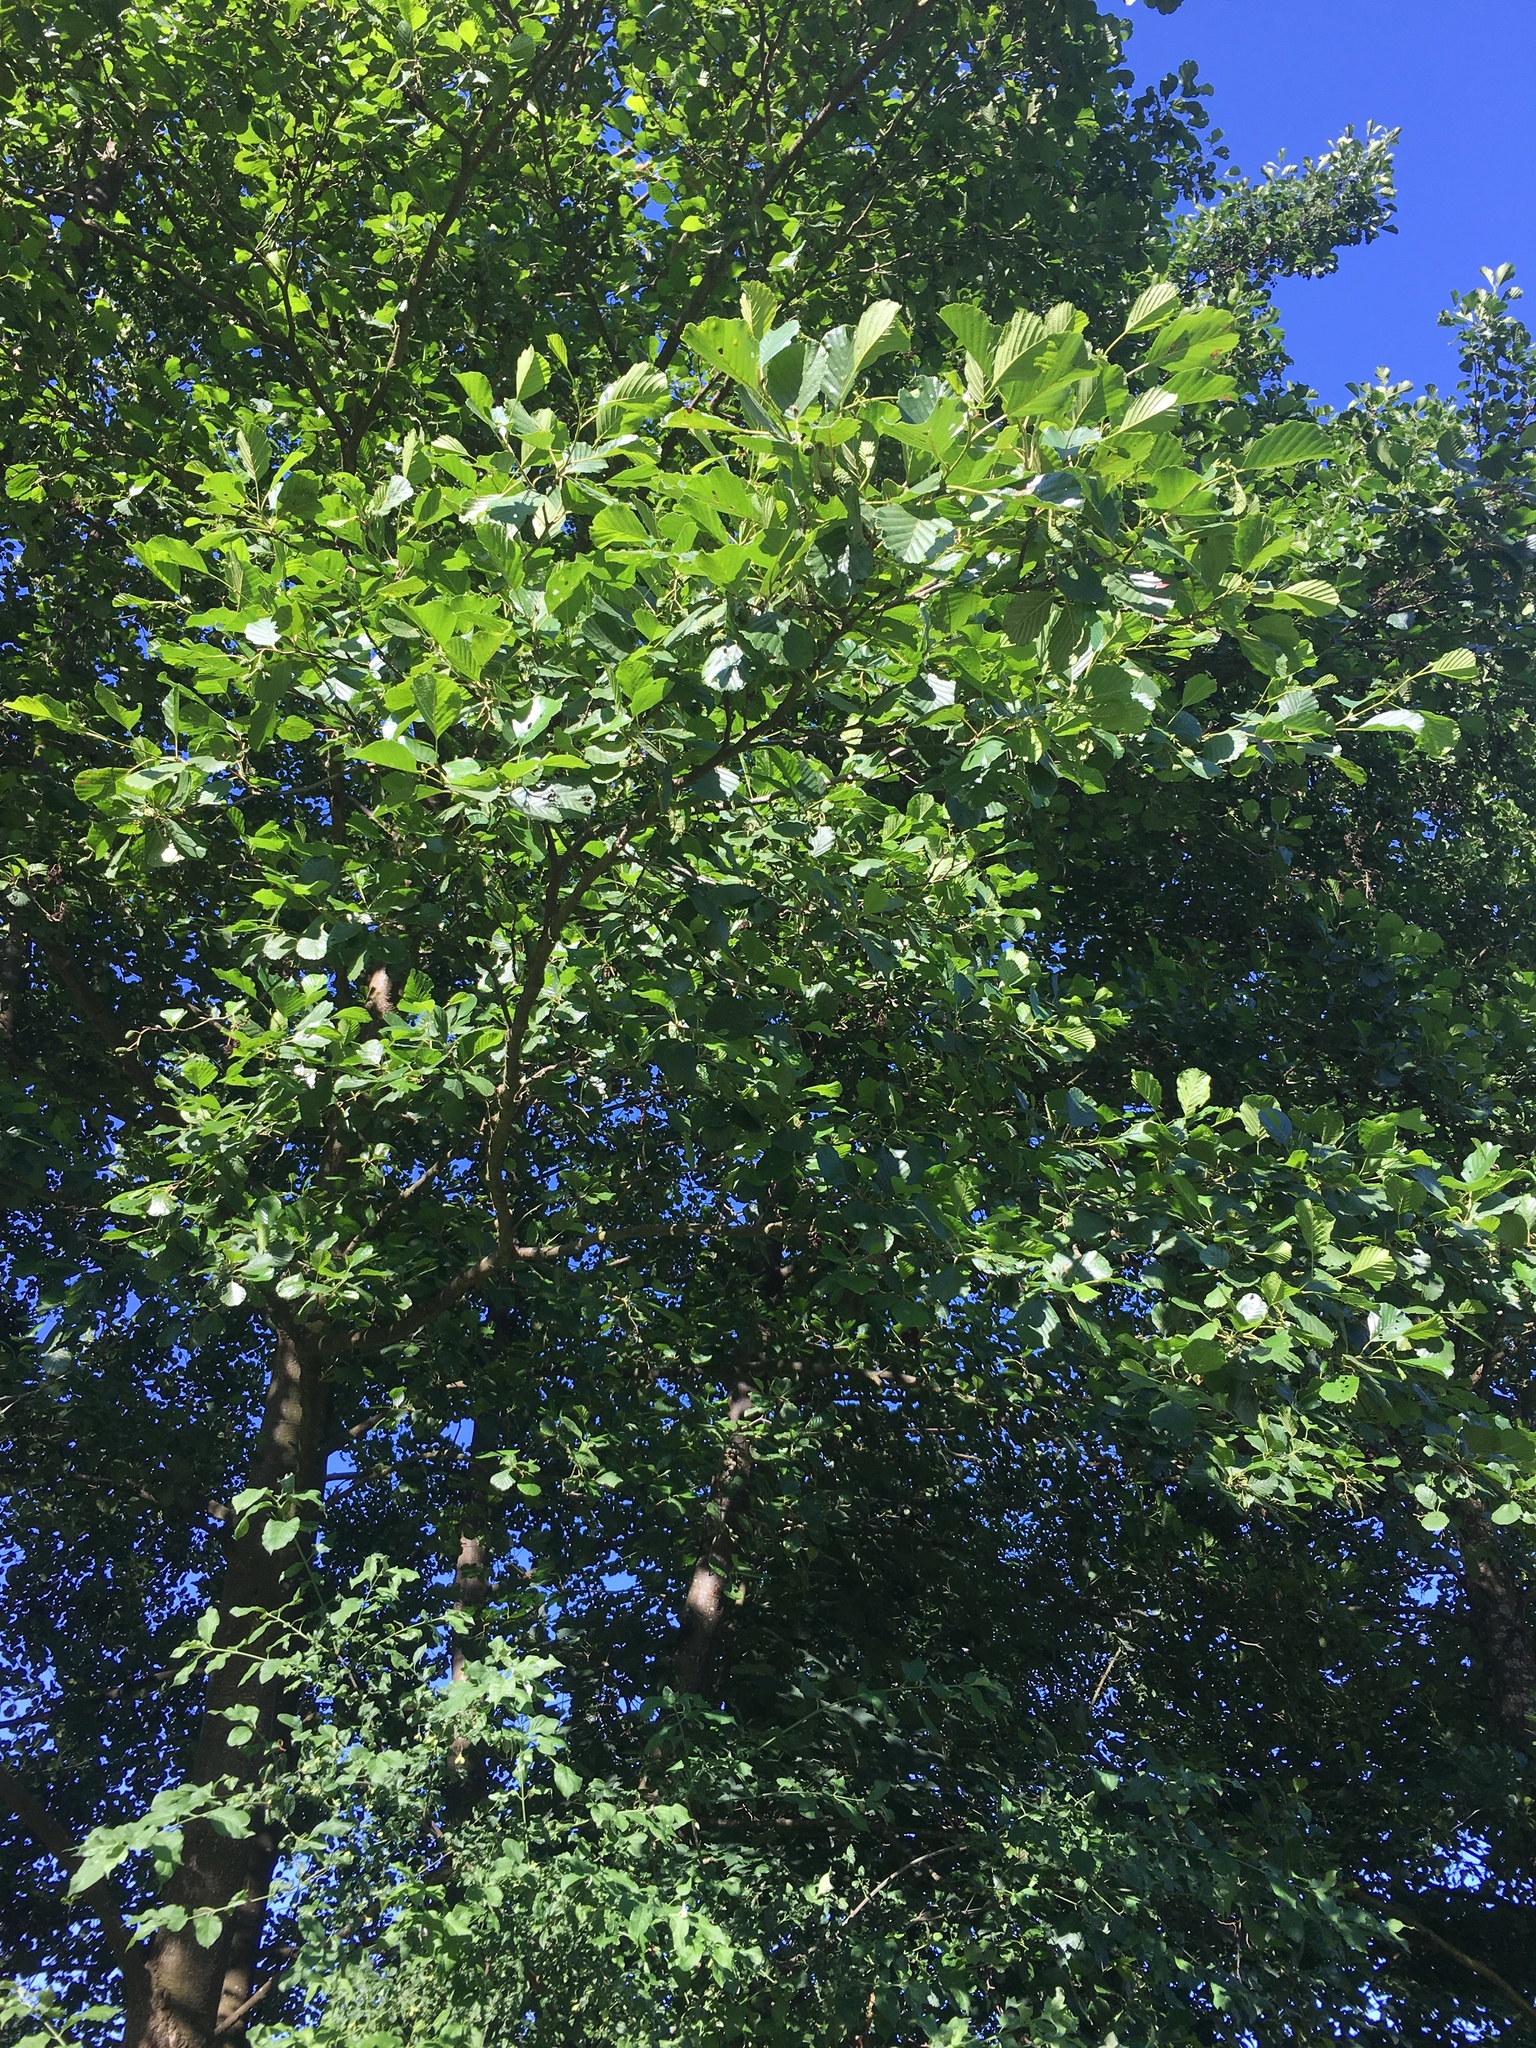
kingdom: Plantae
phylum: Tracheophyta
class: Magnoliopsida
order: Fagales
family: Betulaceae
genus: Alnus
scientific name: Alnus glutinosa
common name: Black alder
